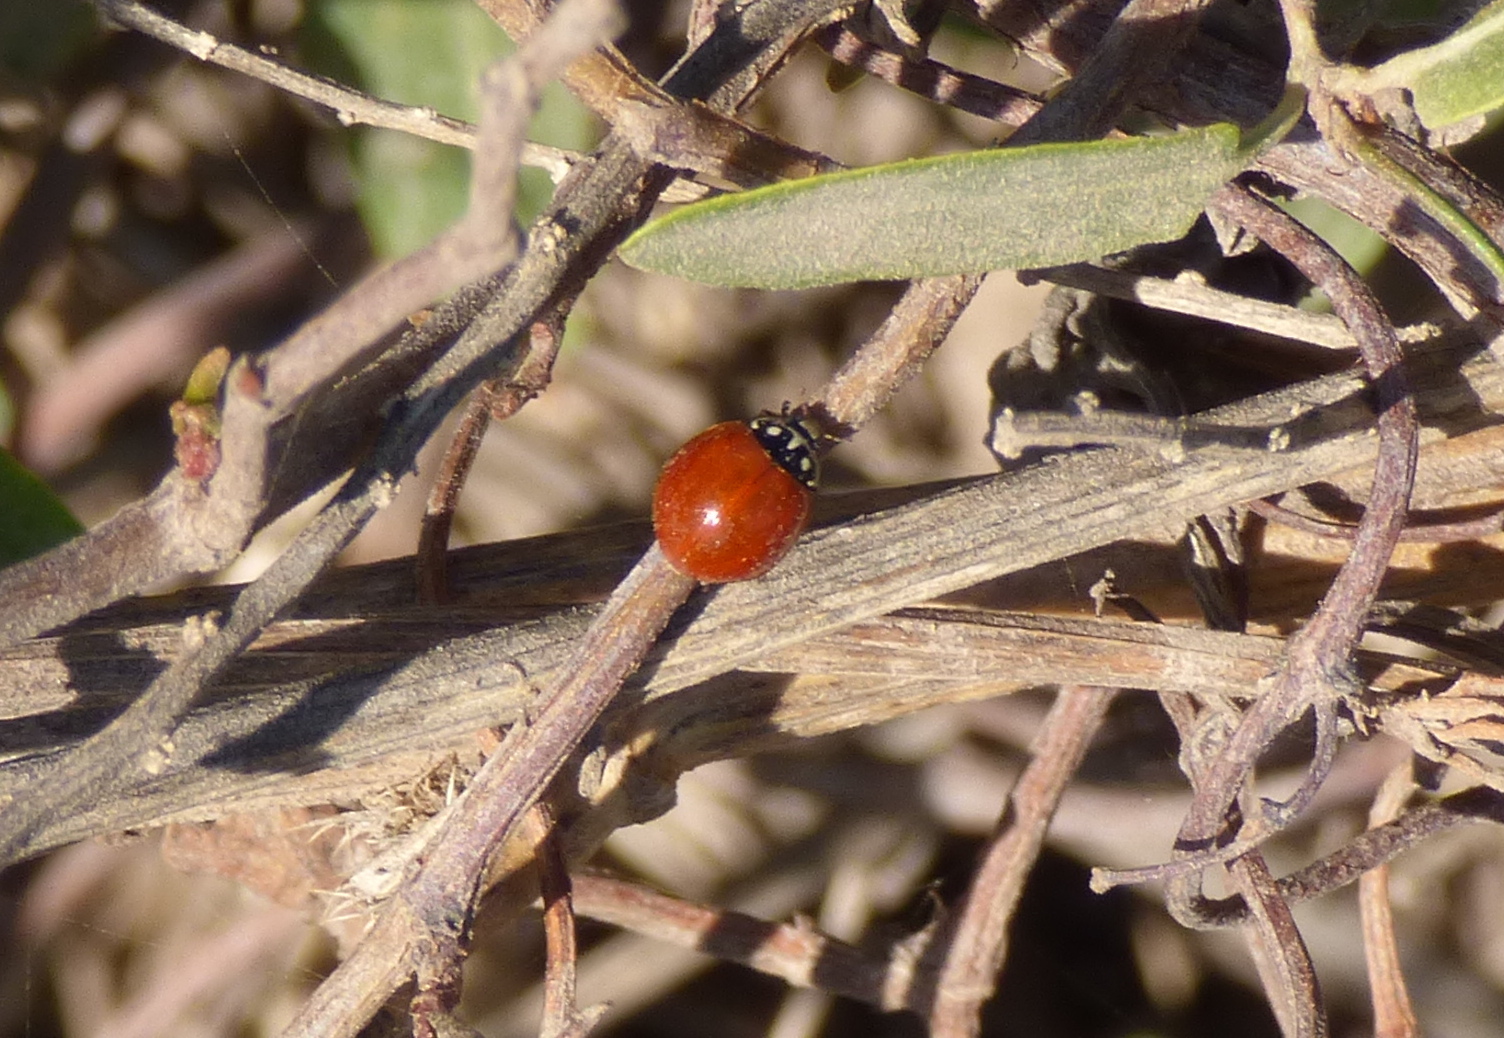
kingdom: Animalia
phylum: Arthropoda
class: Insecta
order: Coleoptera
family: Coccinellidae
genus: Cycloneda
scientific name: Cycloneda sanguinea
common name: Ladybird beetle
